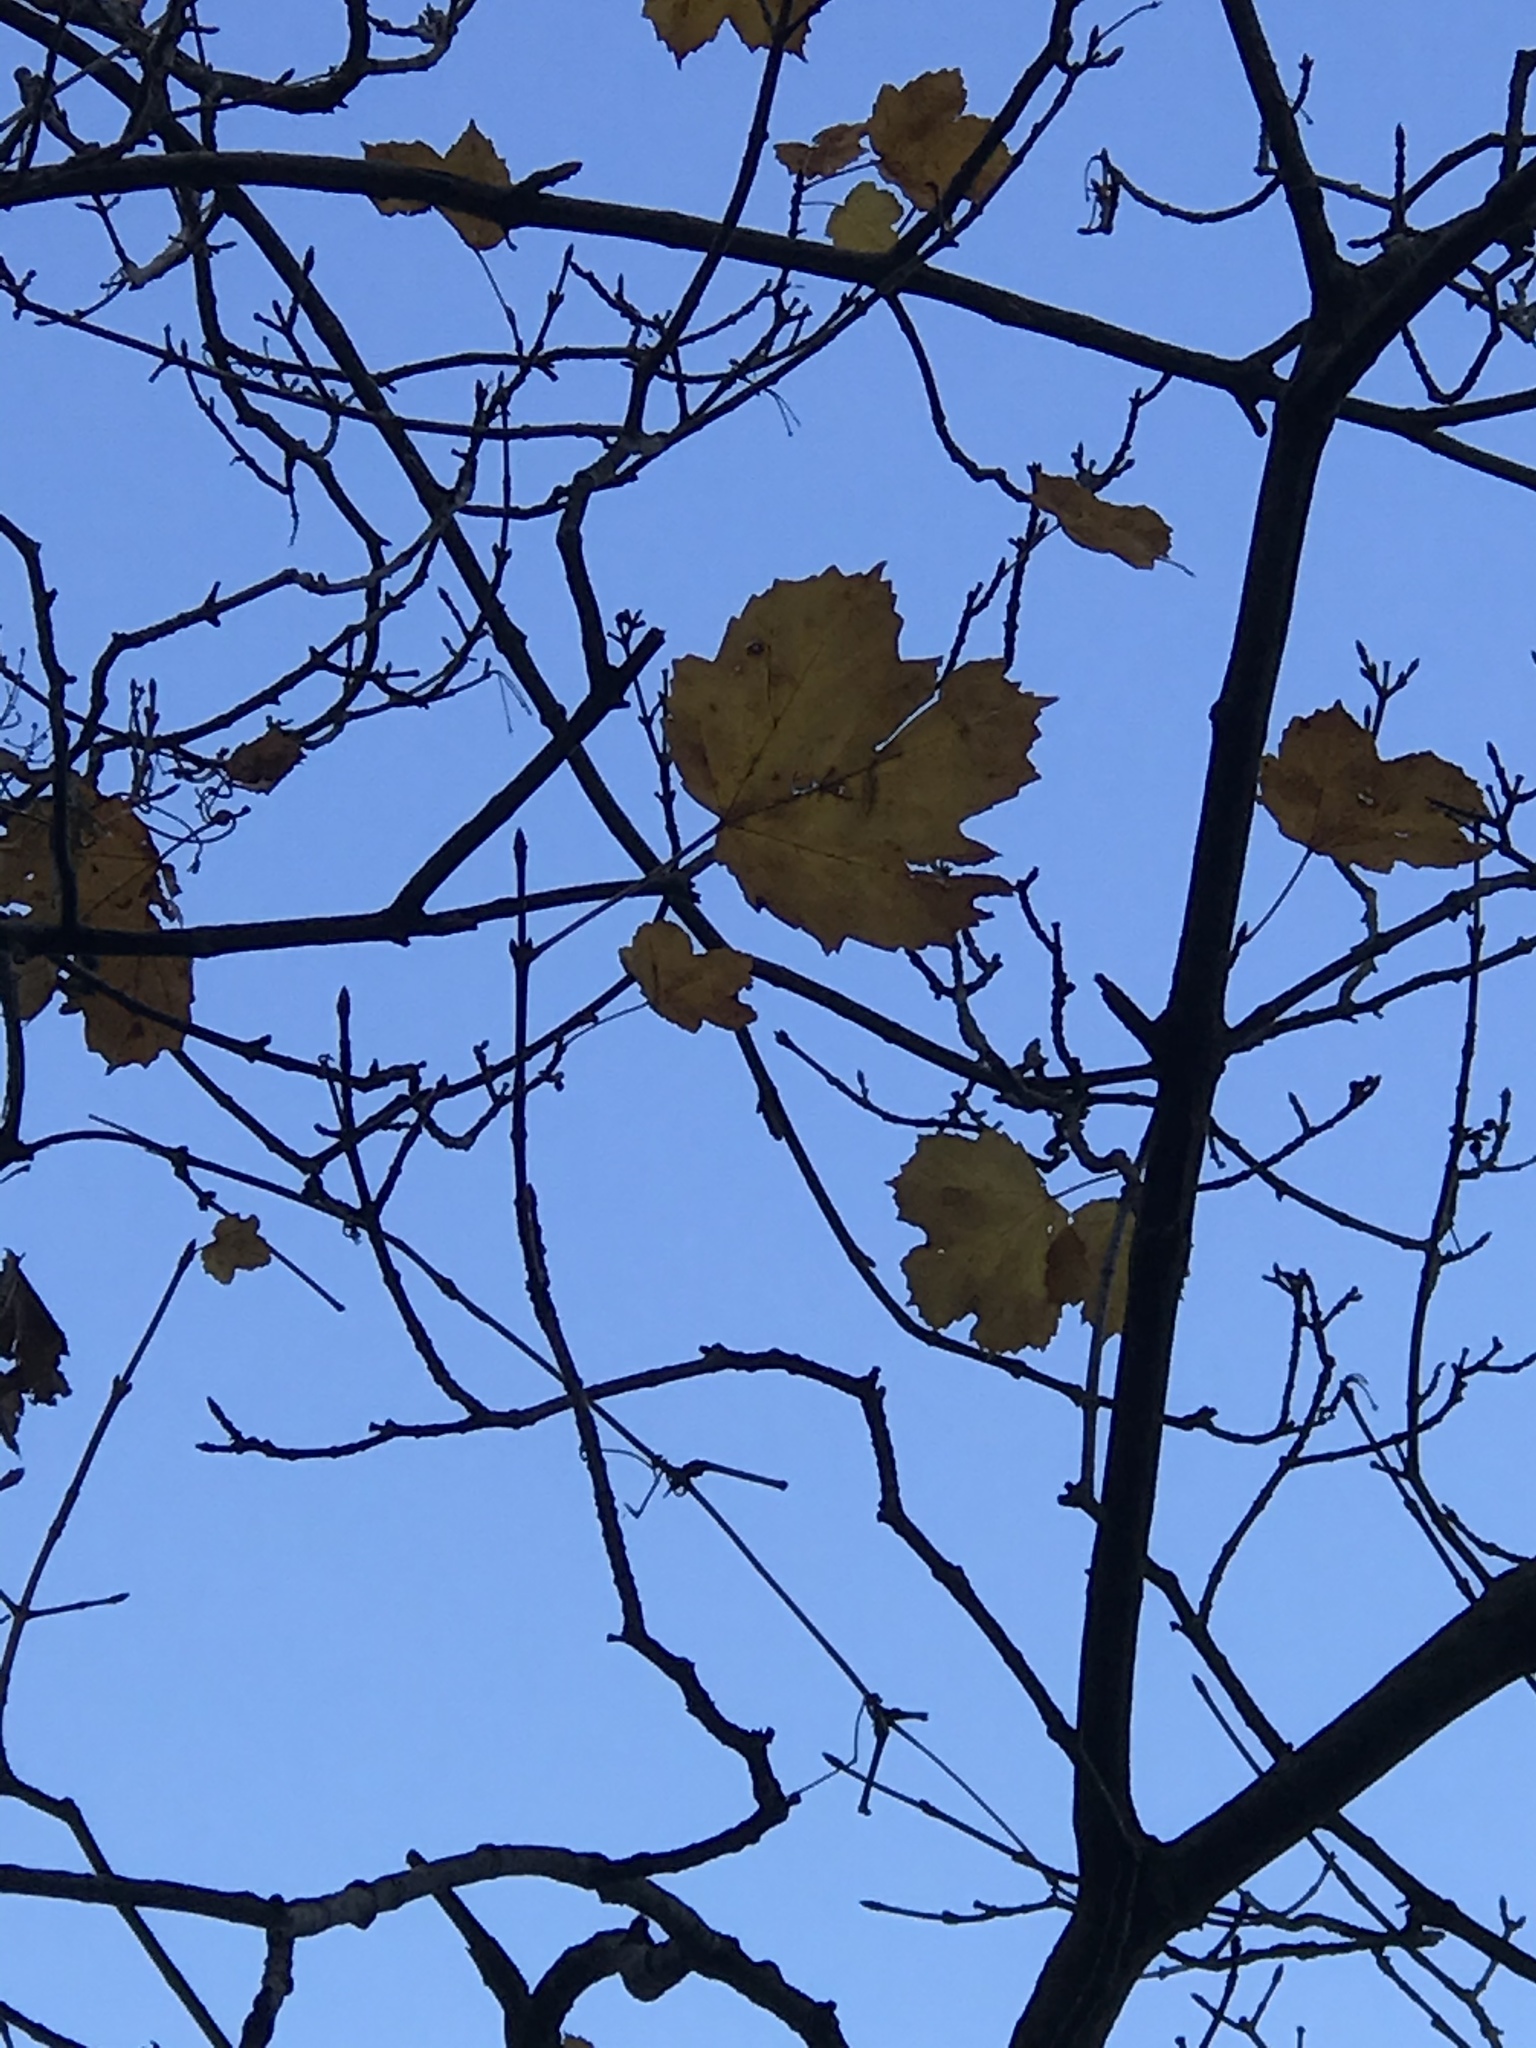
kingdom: Plantae
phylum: Tracheophyta
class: Magnoliopsida
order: Sapindales
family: Sapindaceae
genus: Acer
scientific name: Acer opalus
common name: Italian maple
